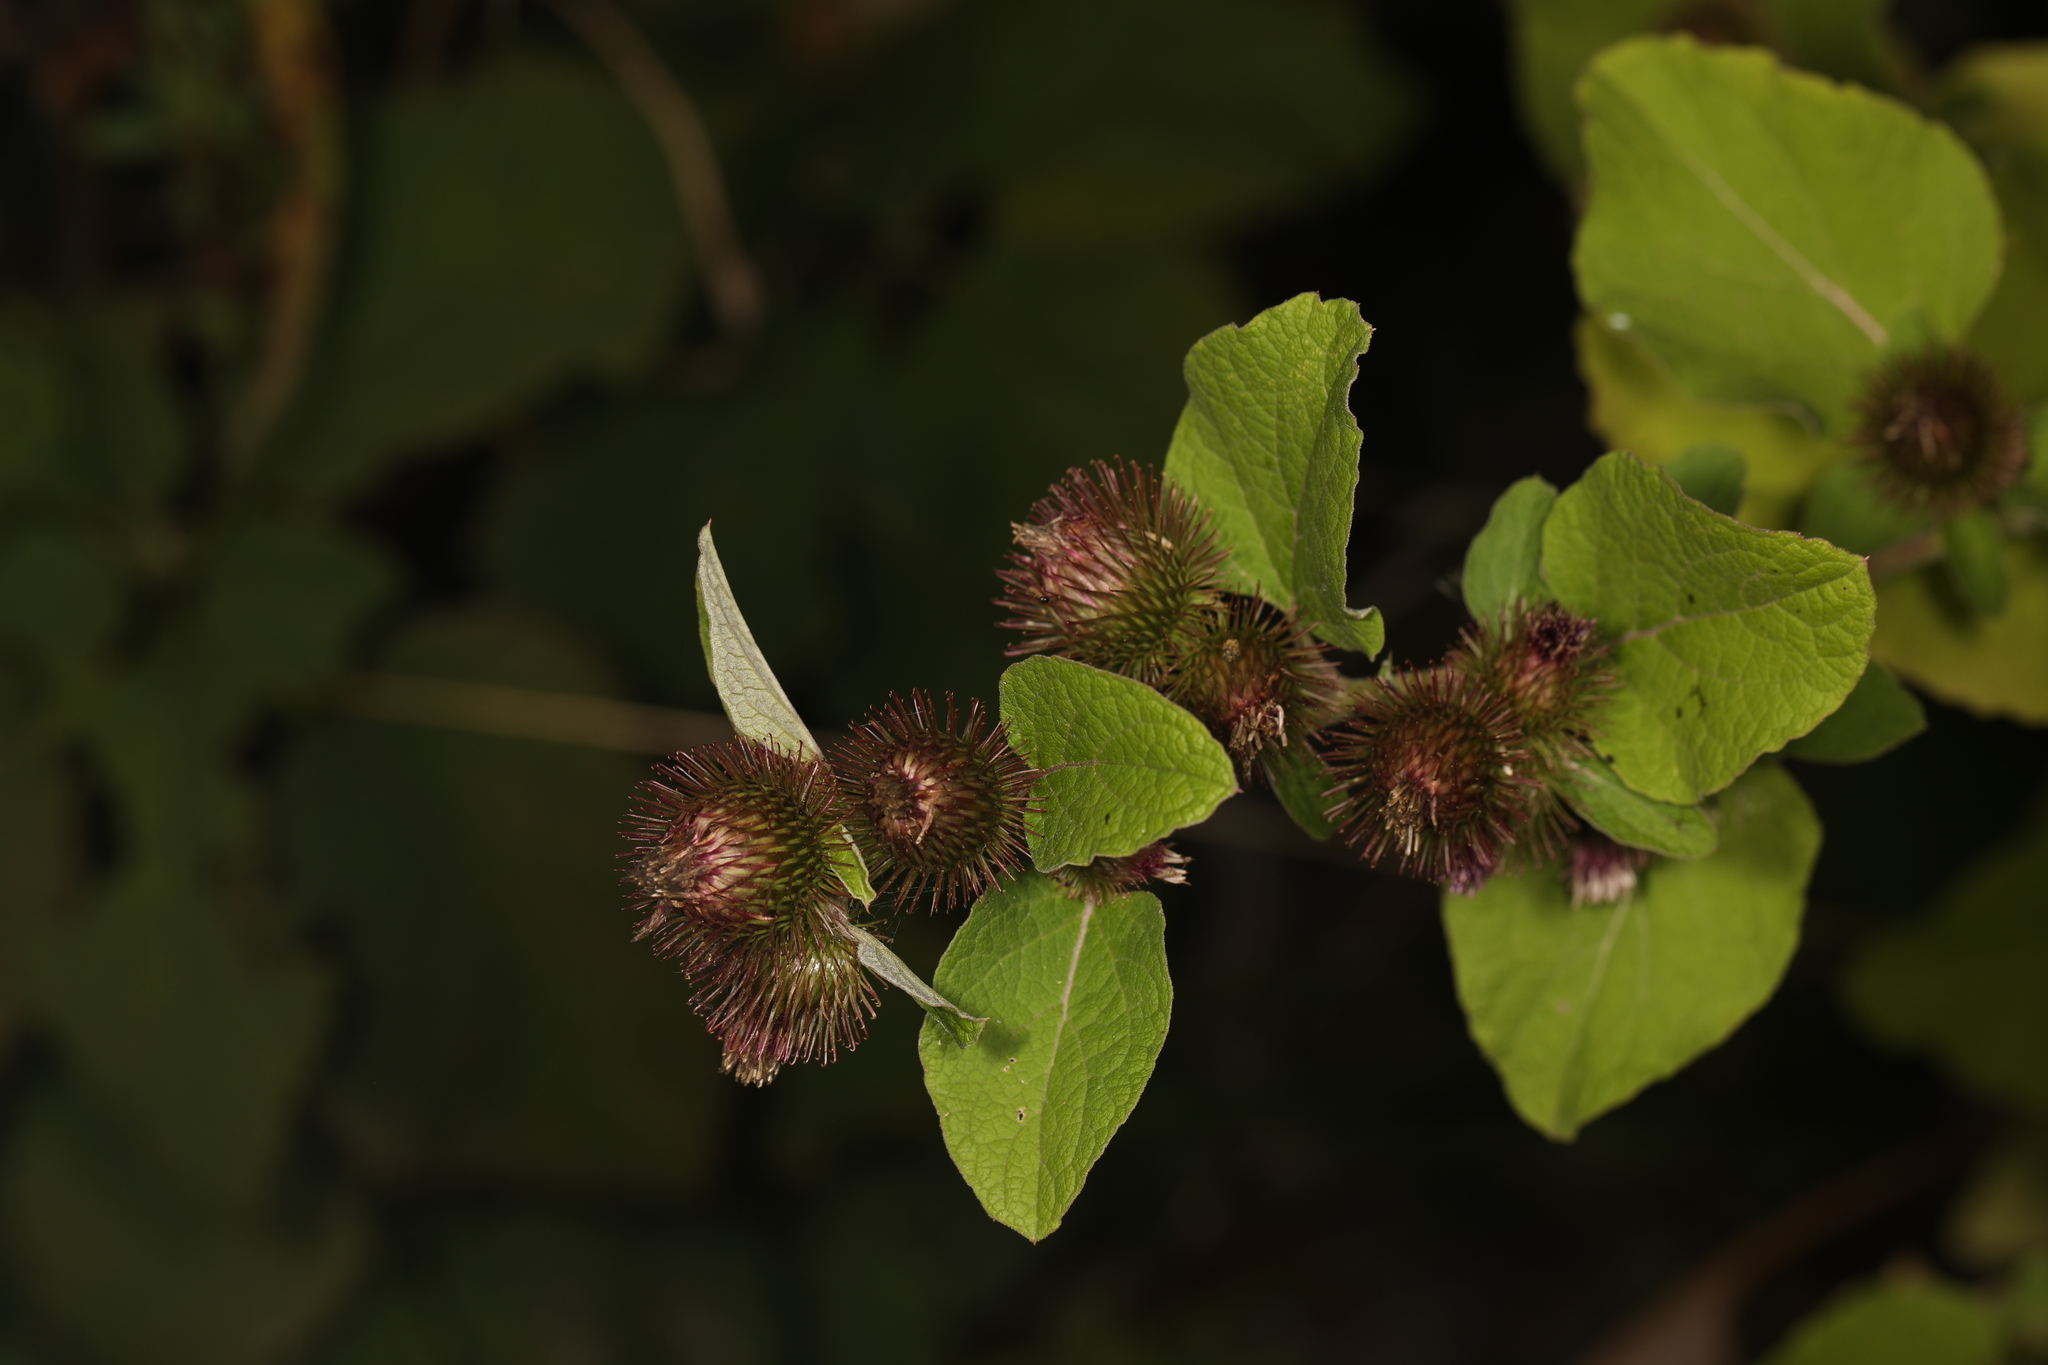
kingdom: Plantae
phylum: Tracheophyta
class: Magnoliopsida
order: Asterales
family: Asteraceae
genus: Arctium
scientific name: Arctium minus
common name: Lesser burdock
